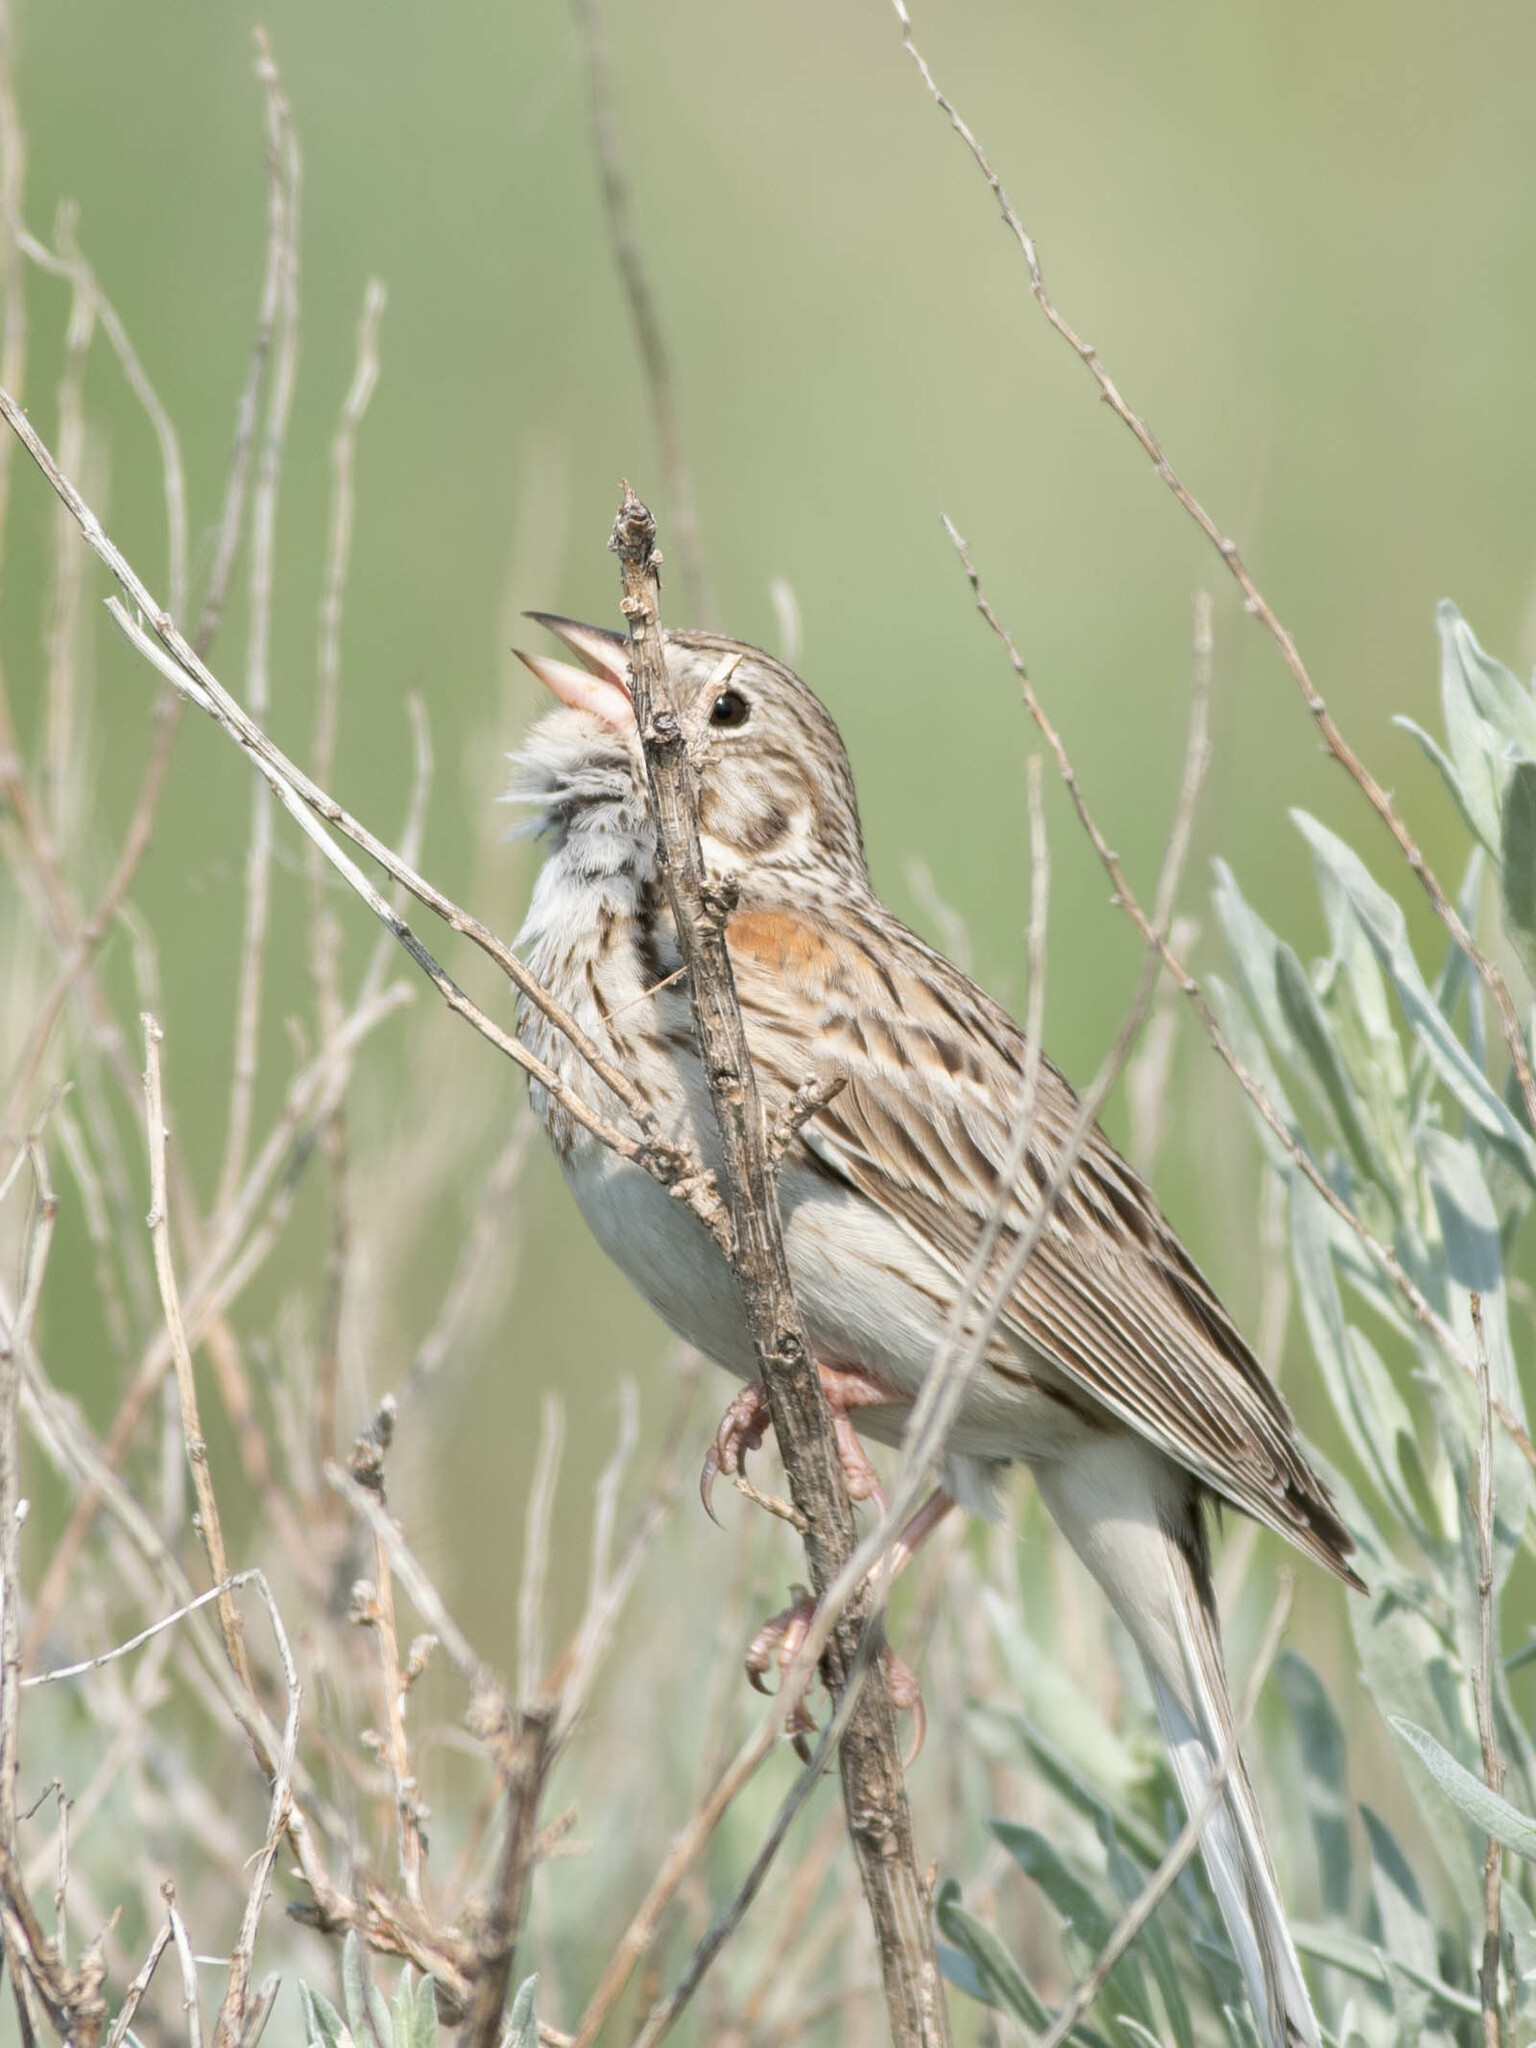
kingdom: Animalia
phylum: Chordata
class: Aves
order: Passeriformes
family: Passerellidae
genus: Pooecetes
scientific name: Pooecetes gramineus
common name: Vesper sparrow
